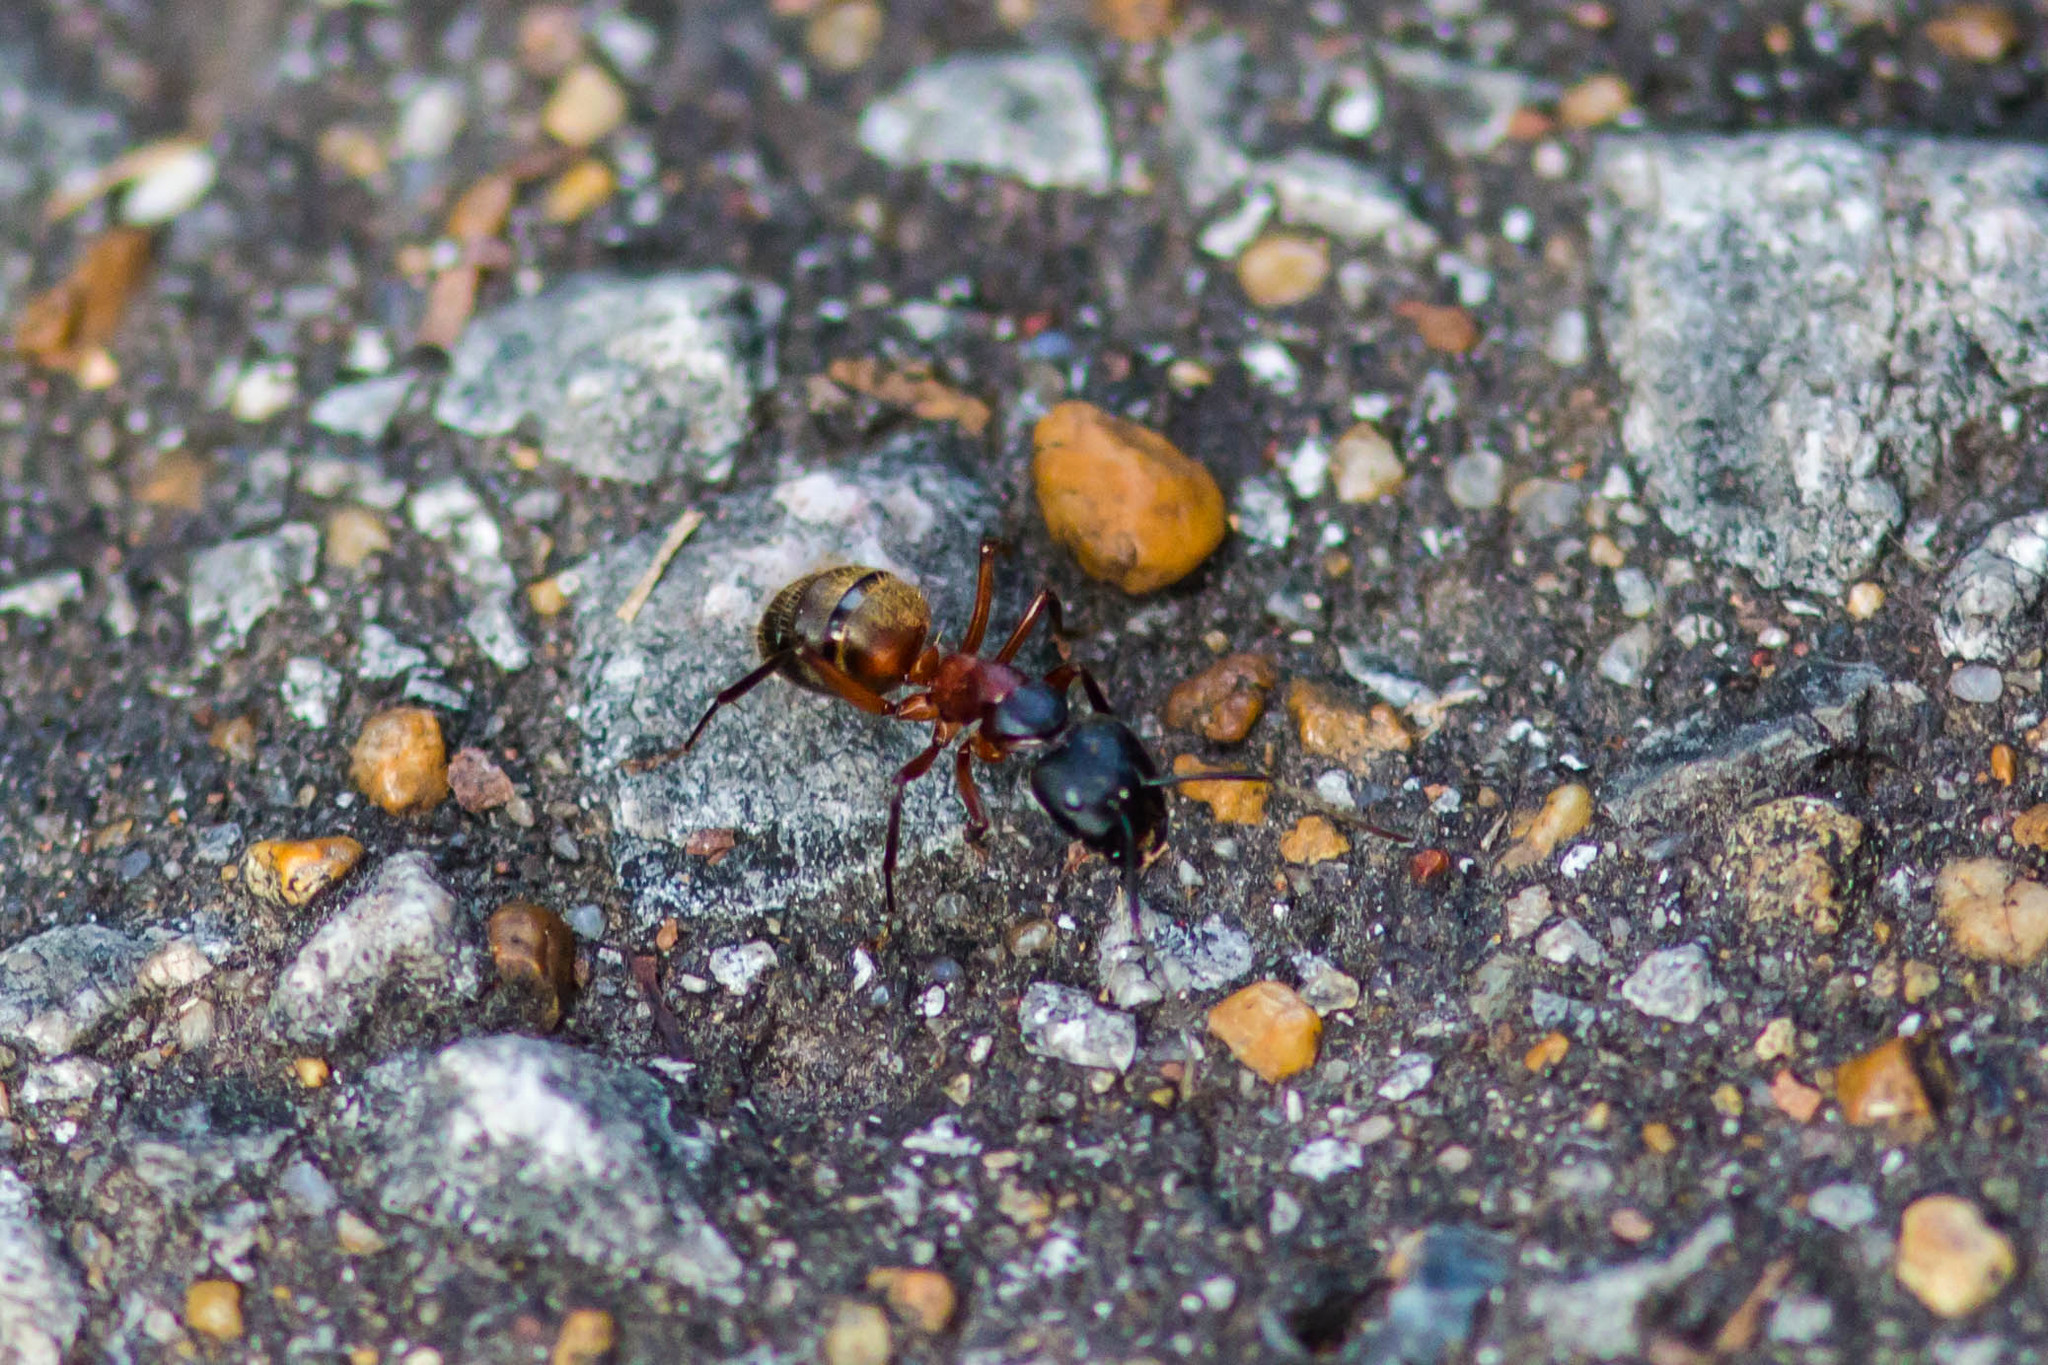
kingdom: Animalia
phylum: Arthropoda
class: Insecta
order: Hymenoptera
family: Formicidae
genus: Camponotus
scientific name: Camponotus chromaiodes
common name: Red carpenter ant
